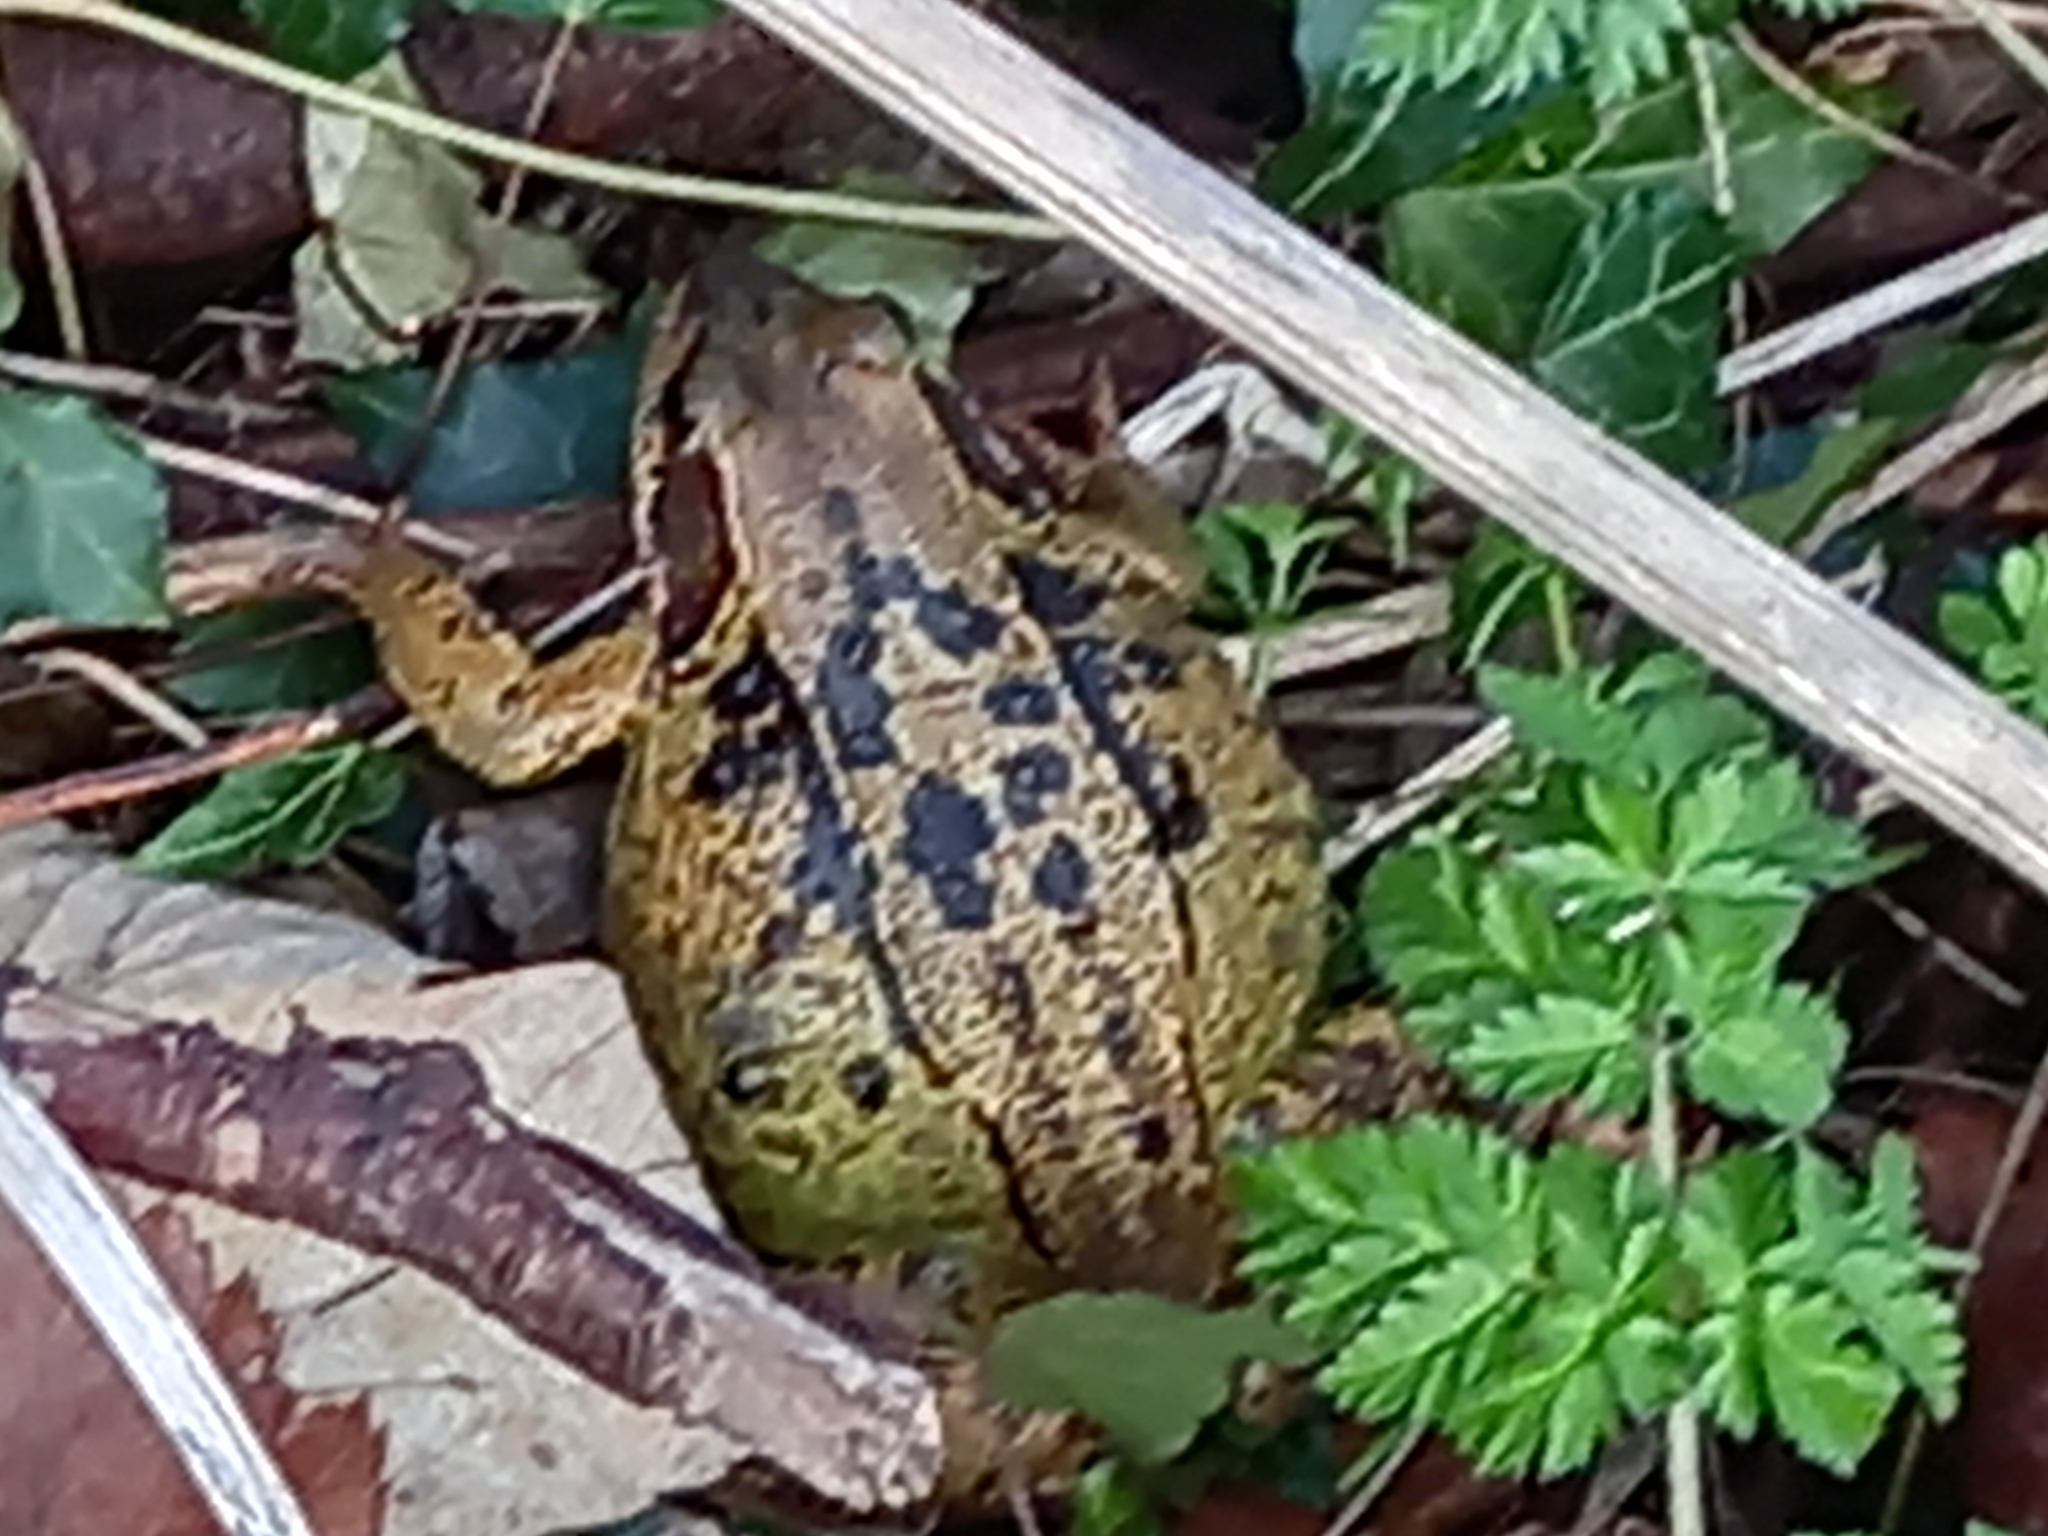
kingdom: Animalia
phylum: Chordata
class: Amphibia
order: Anura
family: Ranidae
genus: Rana
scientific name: Rana temporaria
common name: Common frog
